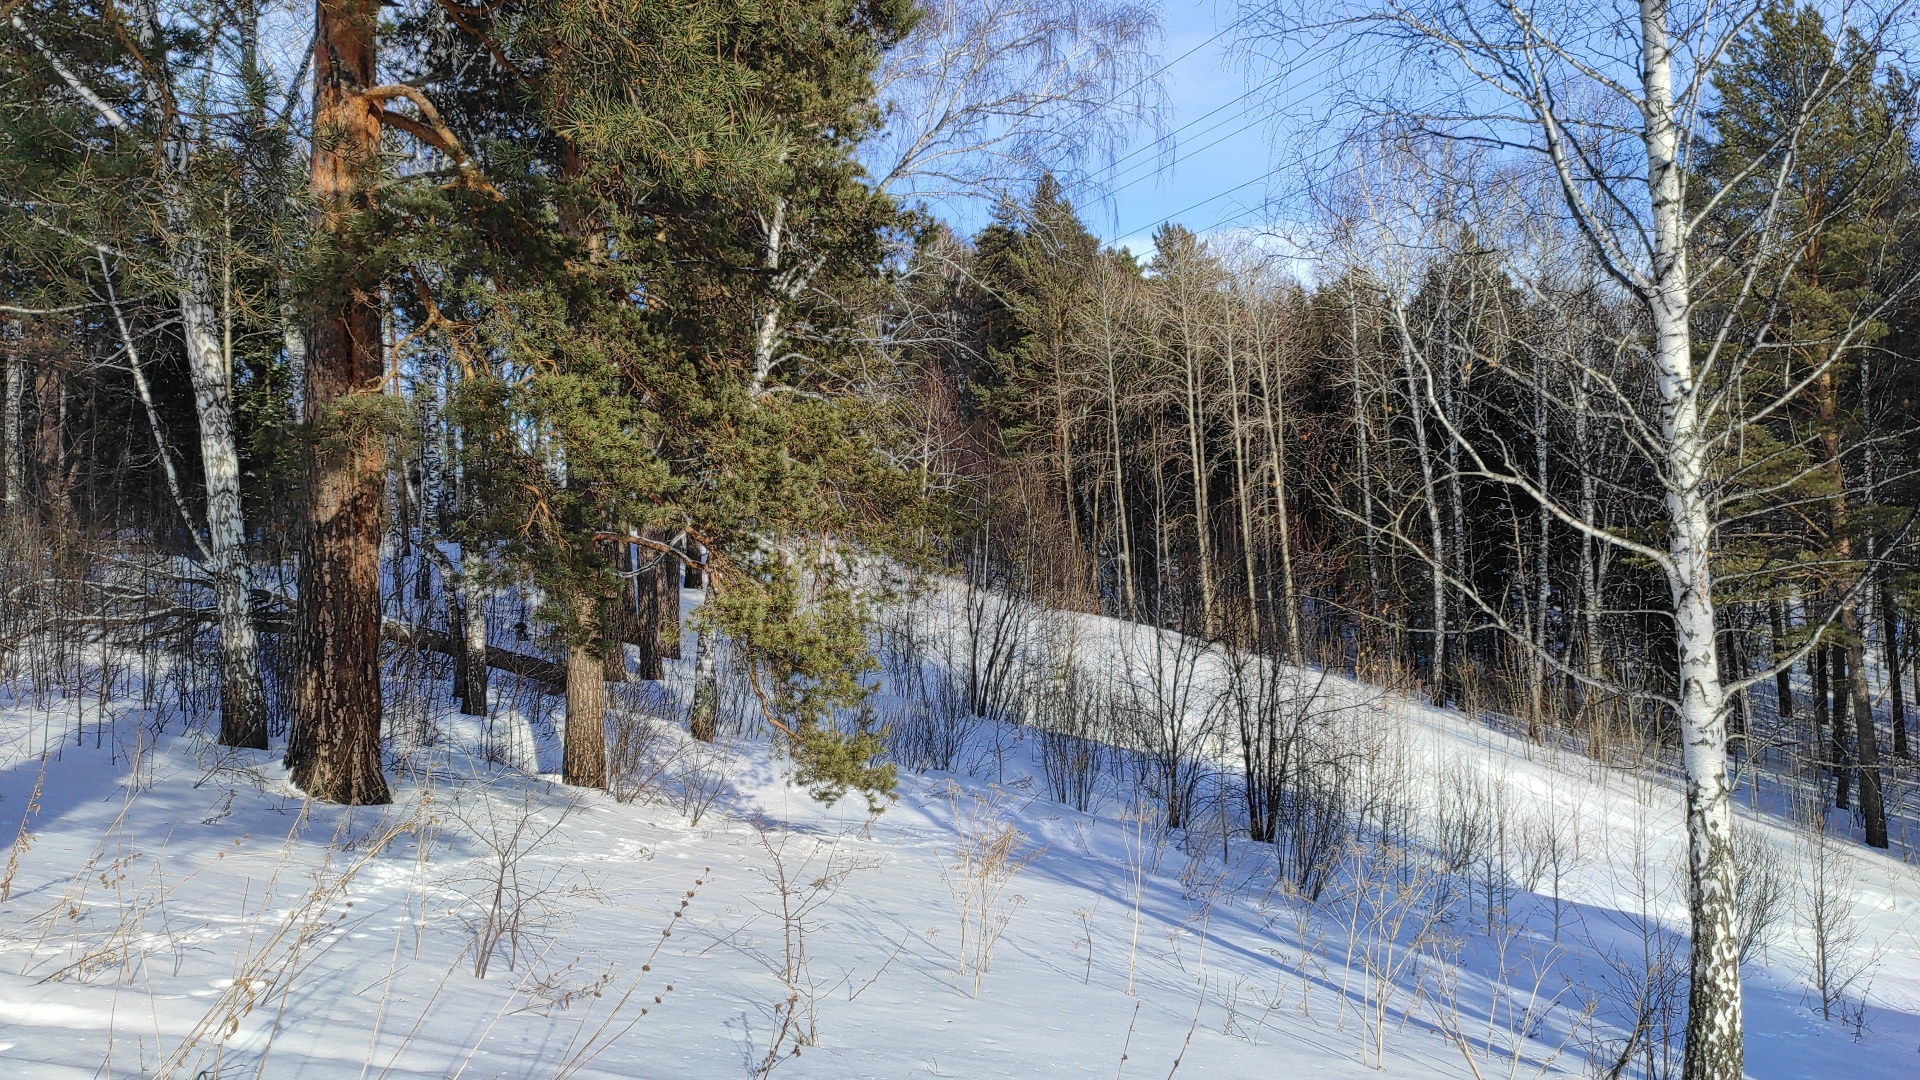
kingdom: Plantae
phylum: Tracheophyta
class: Magnoliopsida
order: Fagales
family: Betulaceae
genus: Betula
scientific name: Betula pendula
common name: Silver birch
